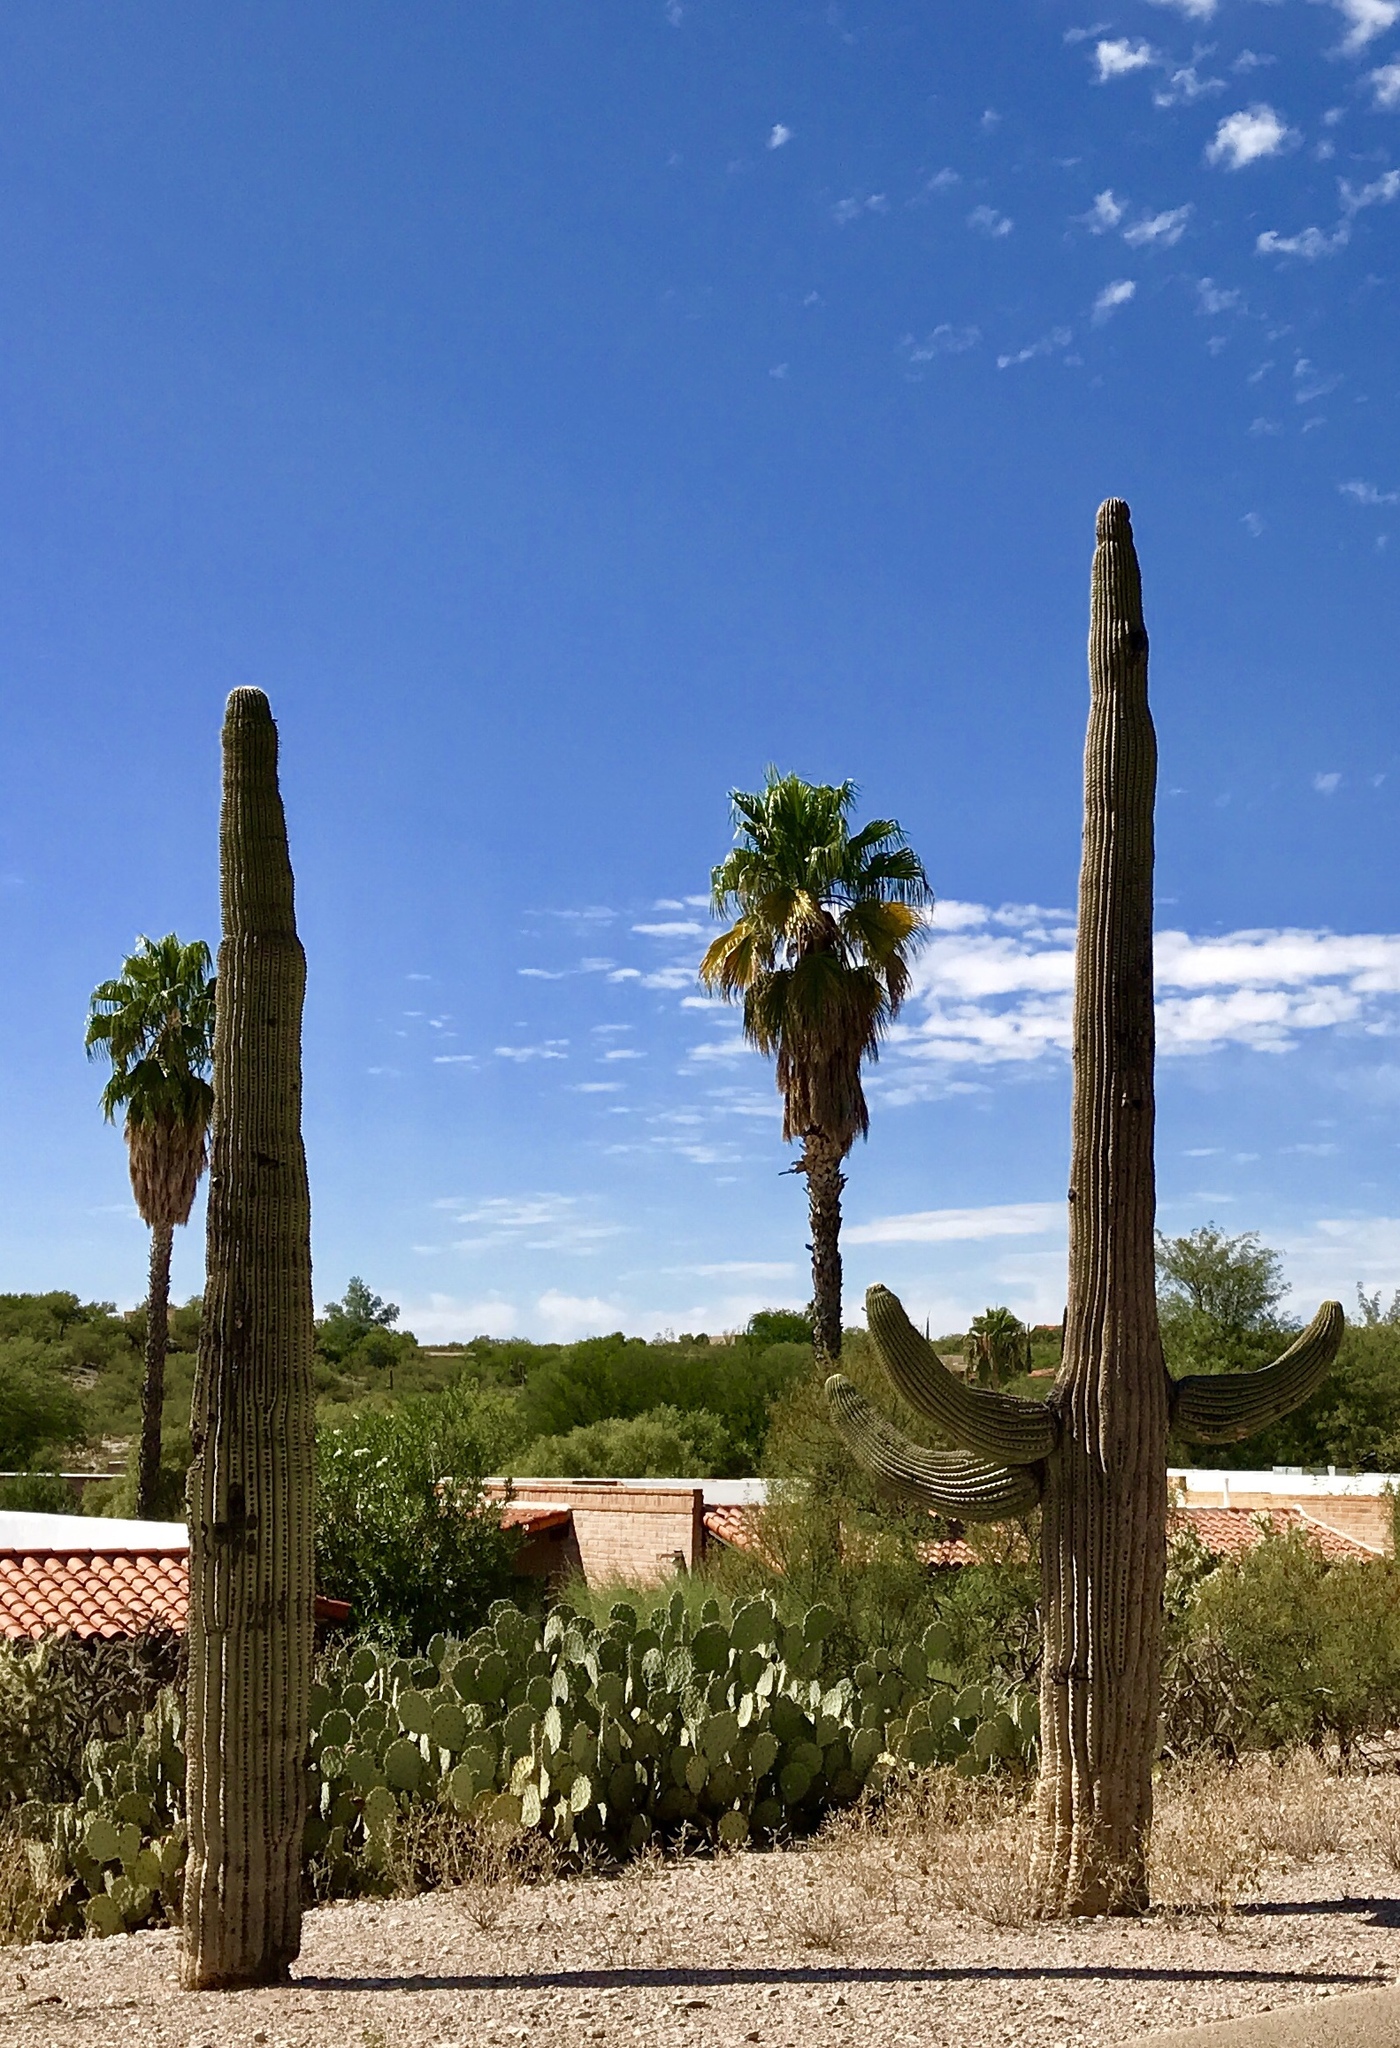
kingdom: Plantae
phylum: Tracheophyta
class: Magnoliopsida
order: Caryophyllales
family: Cactaceae
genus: Carnegiea
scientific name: Carnegiea gigantea
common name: Saguaro
